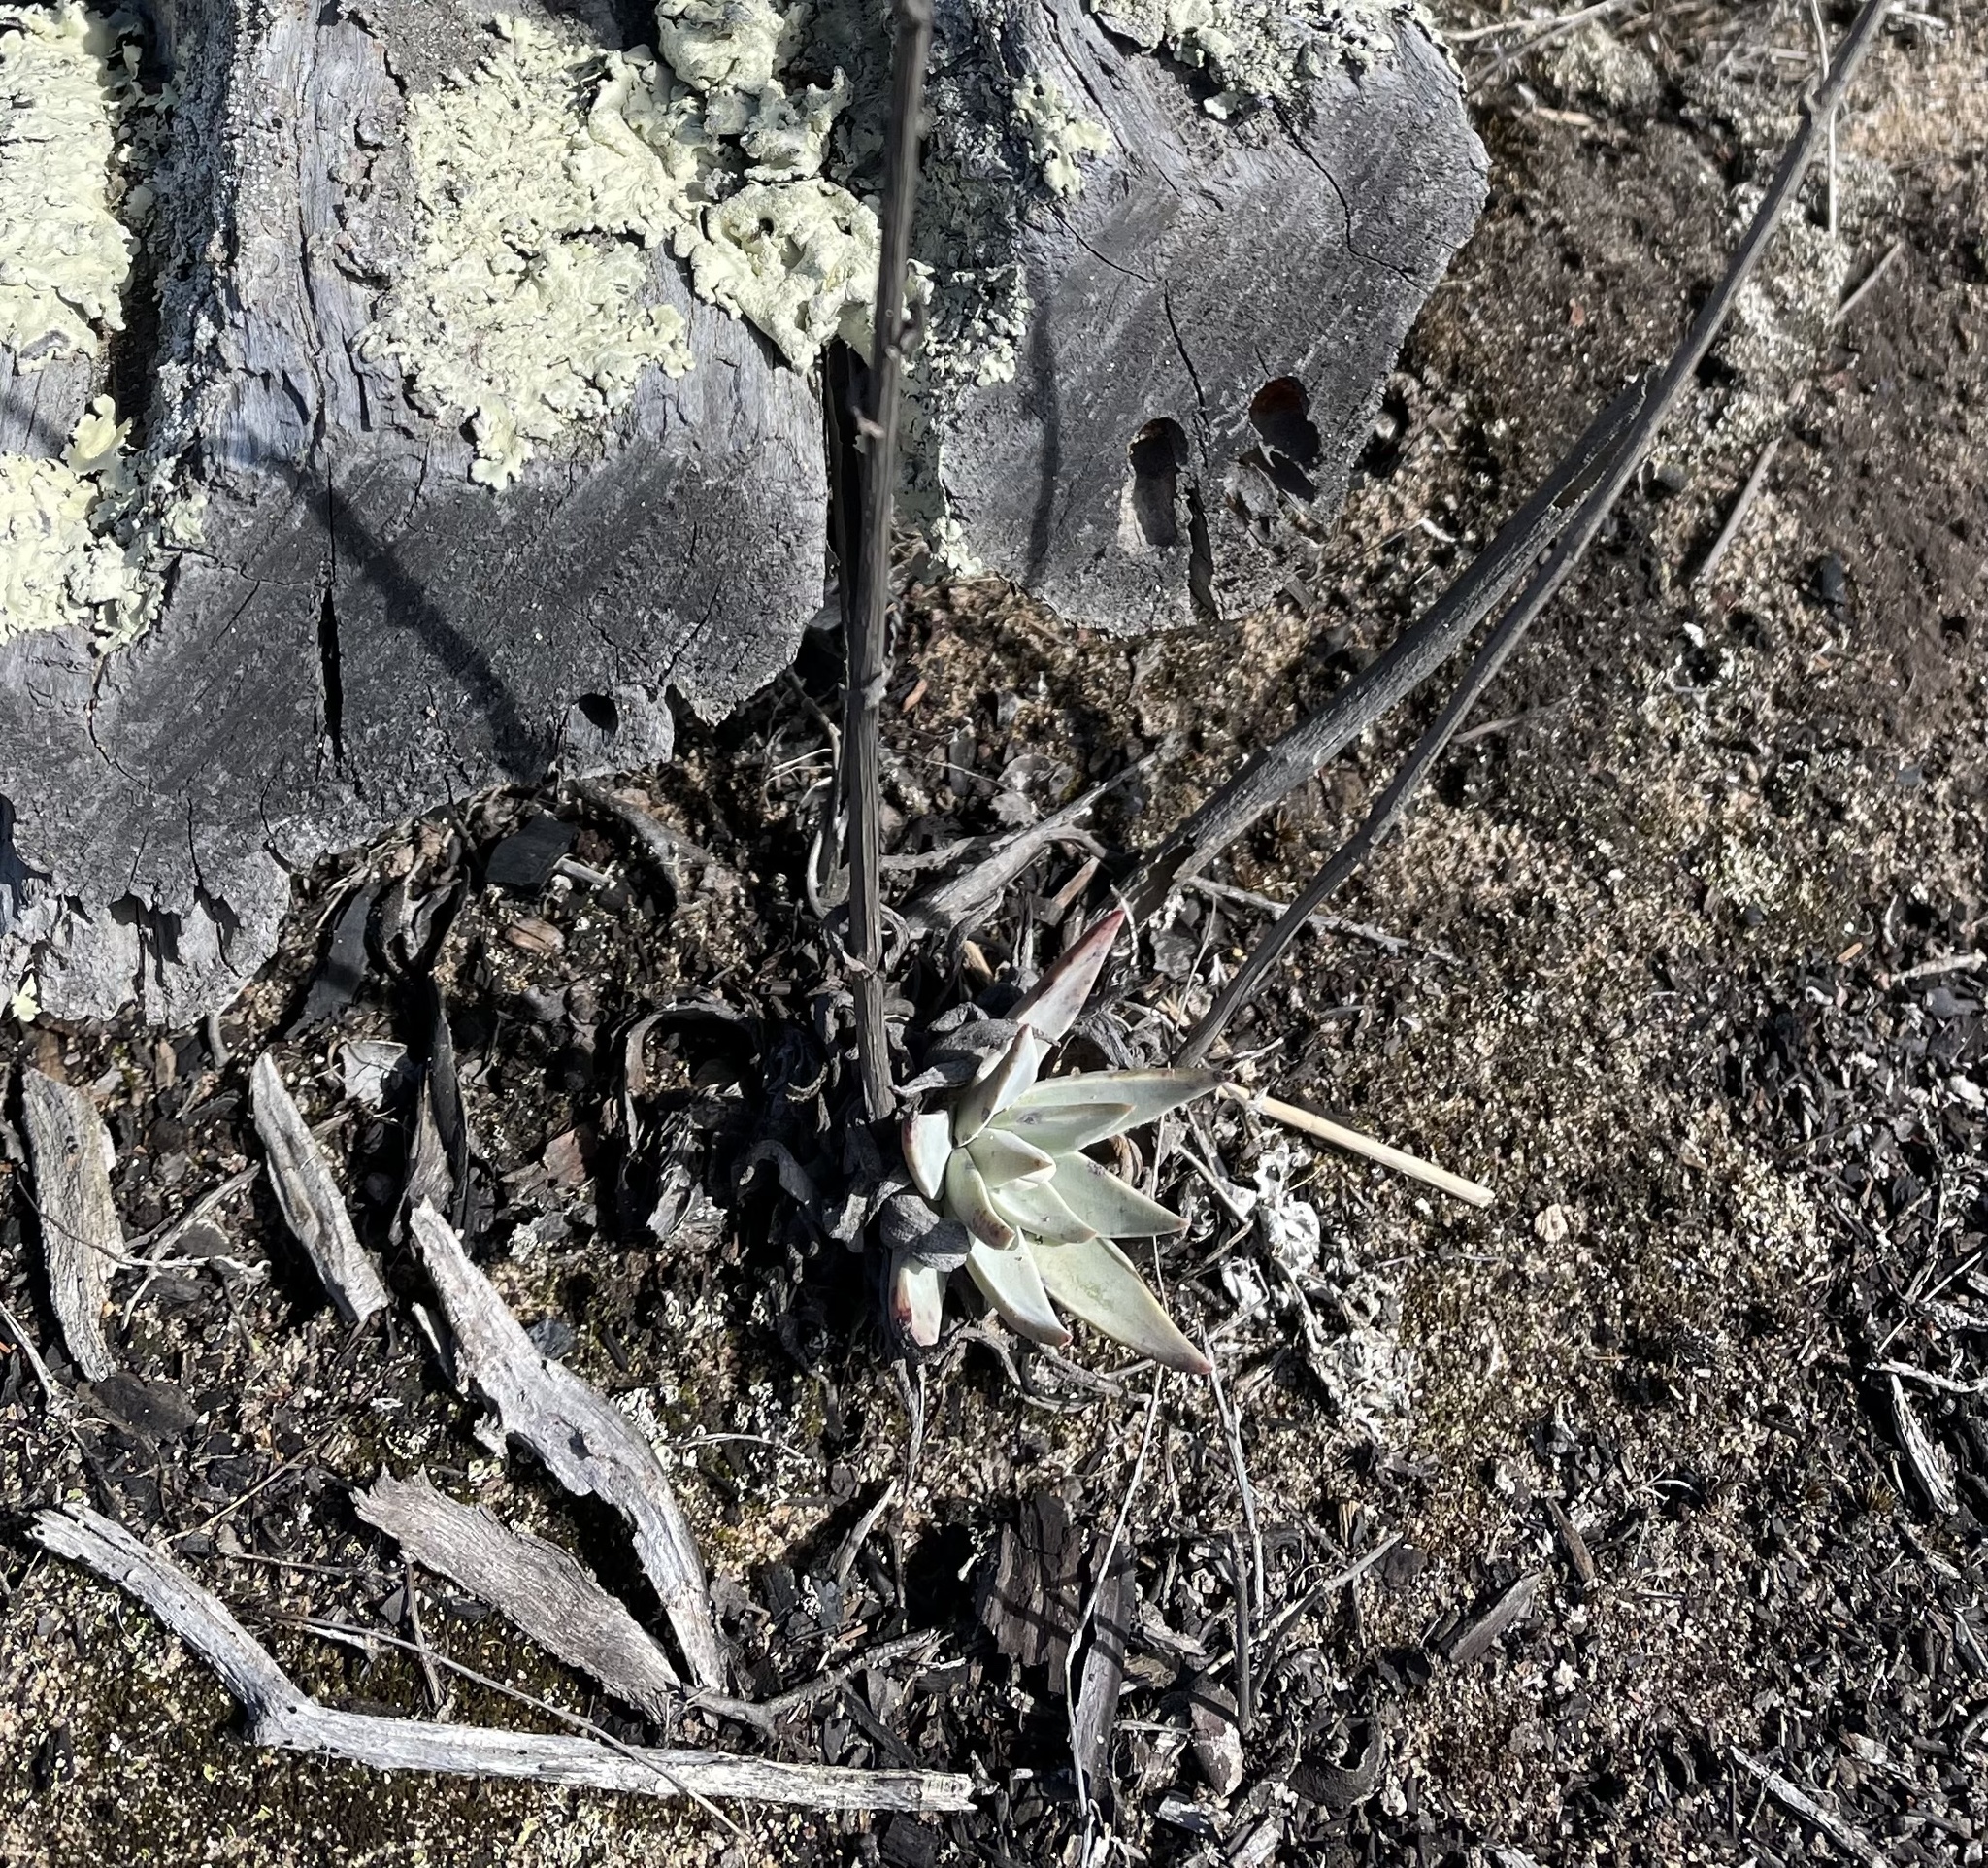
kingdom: Plantae
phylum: Tracheophyta
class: Magnoliopsida
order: Saxifragales
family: Crassulaceae
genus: Dudleya
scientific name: Dudleya lanceolata
